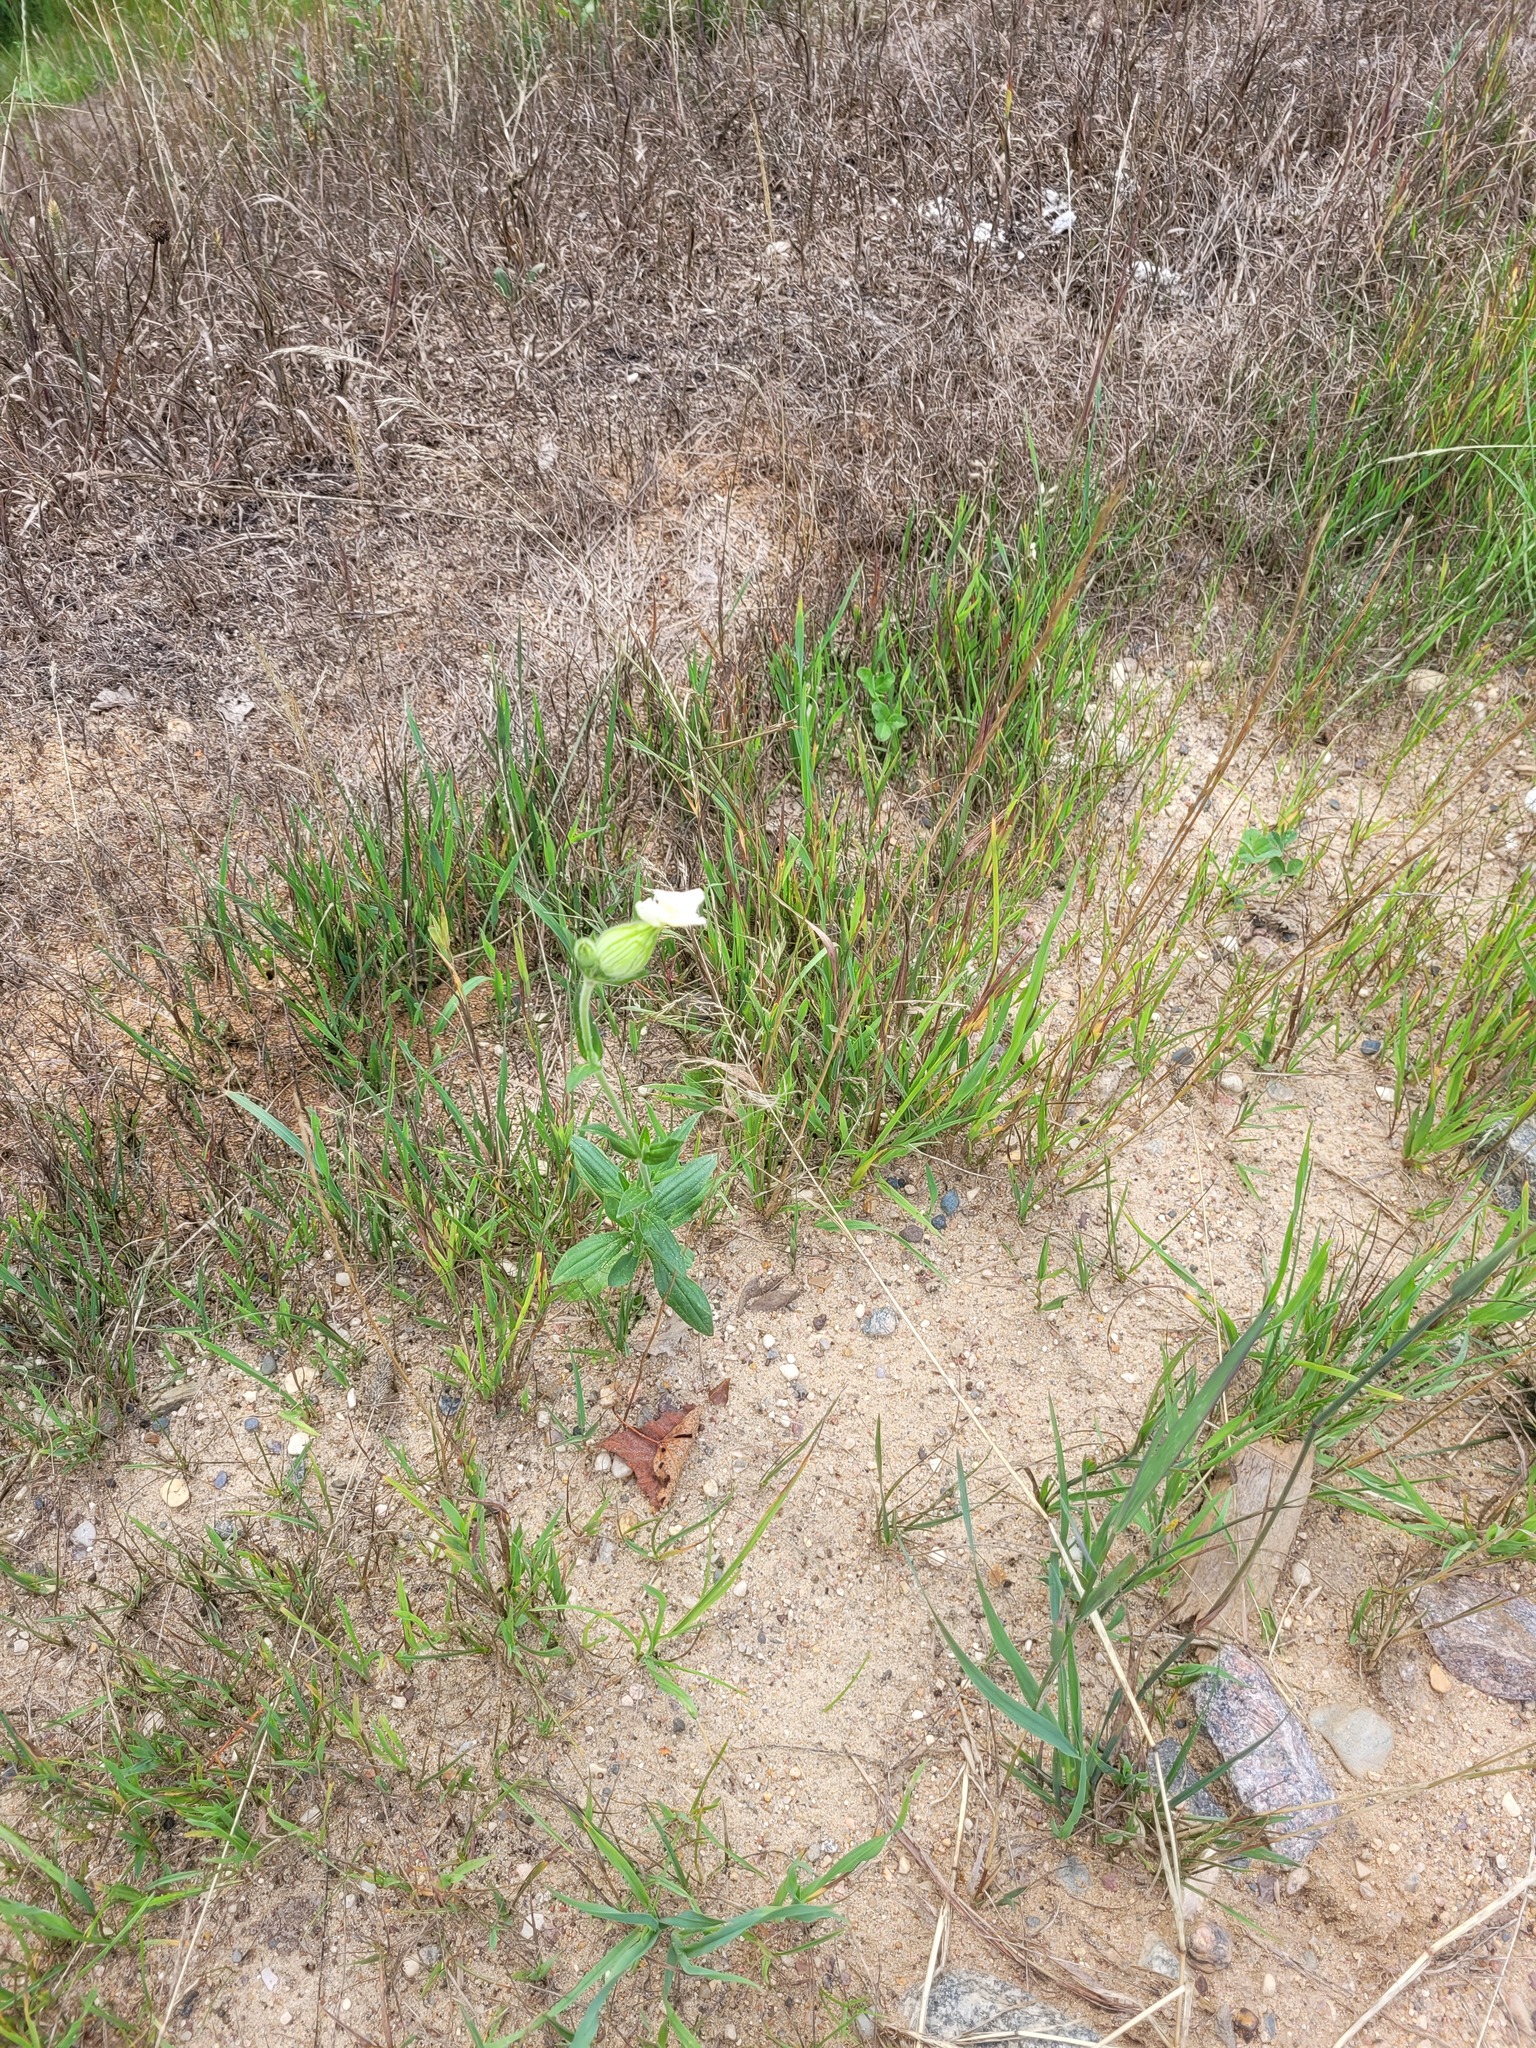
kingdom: Plantae
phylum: Tracheophyta
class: Magnoliopsida
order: Caryophyllales
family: Caryophyllaceae
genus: Silene
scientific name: Silene latifolia
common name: White campion
